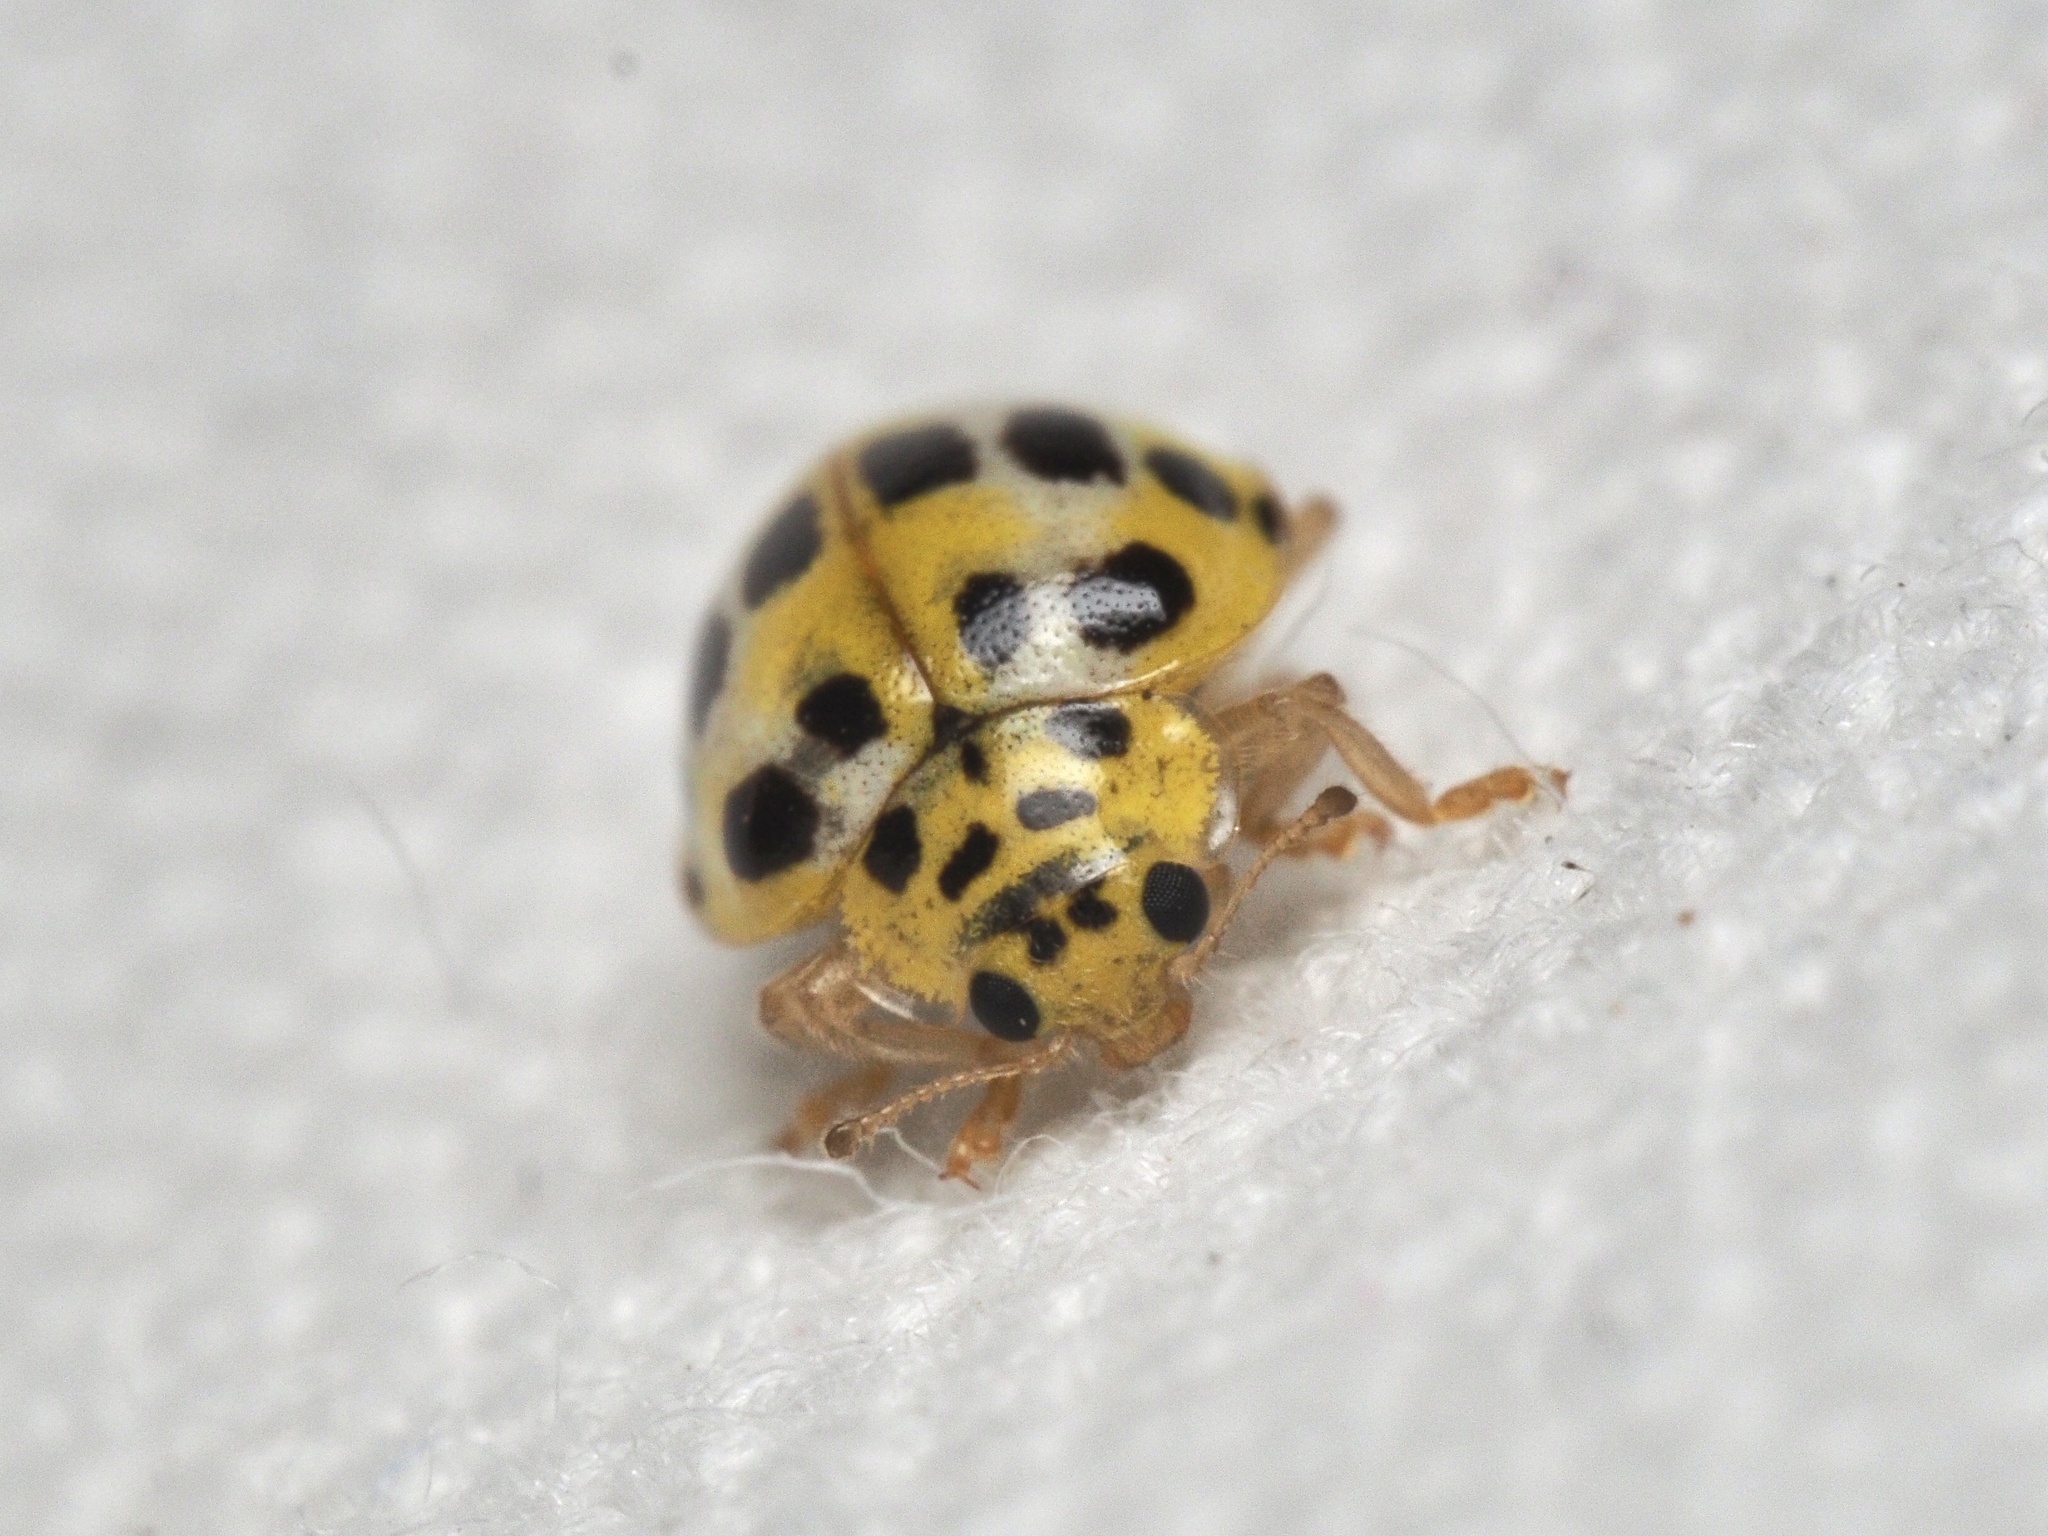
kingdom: Animalia
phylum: Arthropoda
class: Insecta
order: Coleoptera
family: Coccinellidae
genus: Psyllobora
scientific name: Psyllobora variegata
